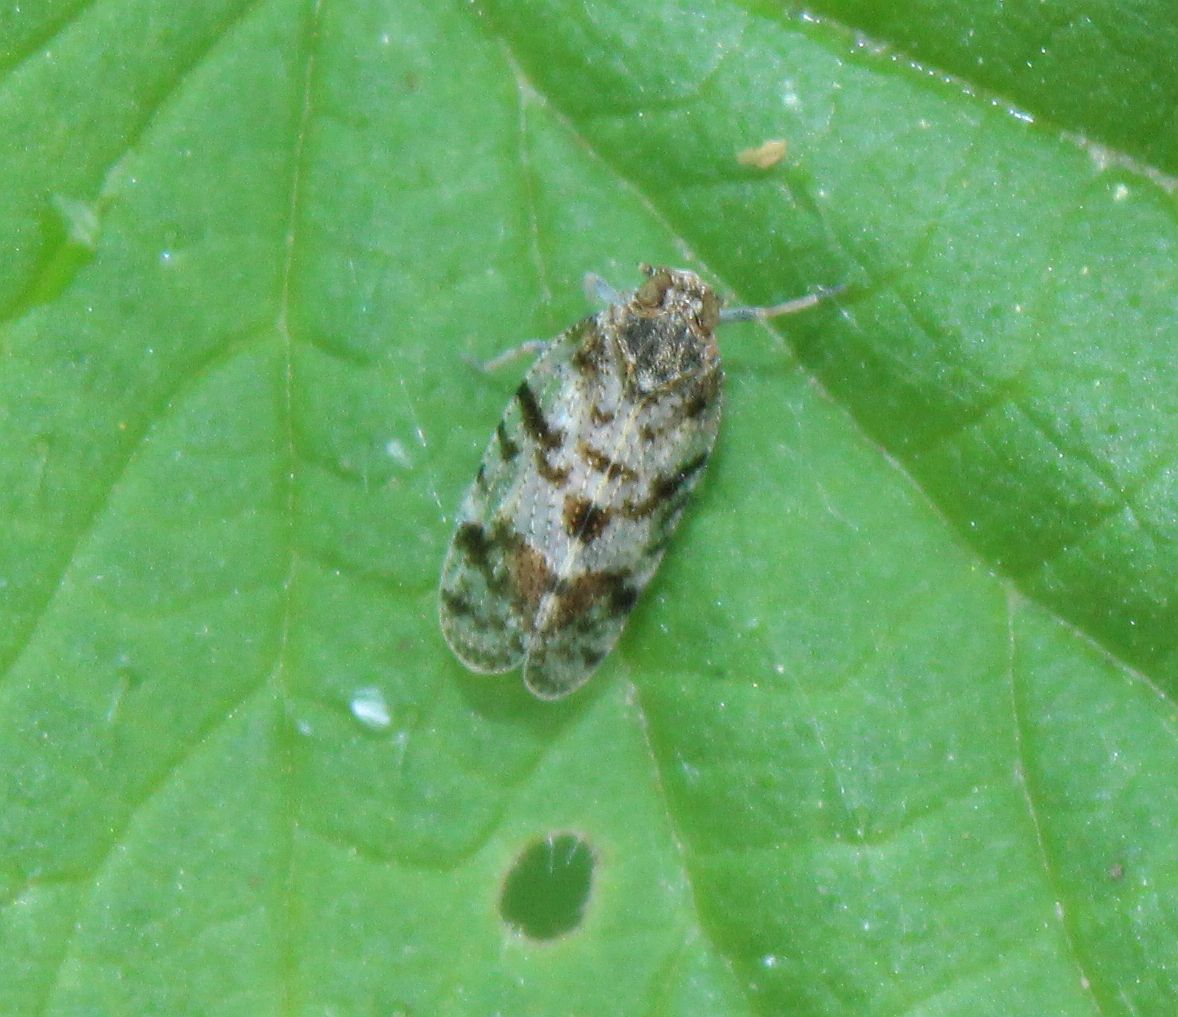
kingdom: Animalia
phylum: Arthropoda
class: Insecta
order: Hemiptera
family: Cixiidae
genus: Tachycixius
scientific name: Tachycixius pilosus
